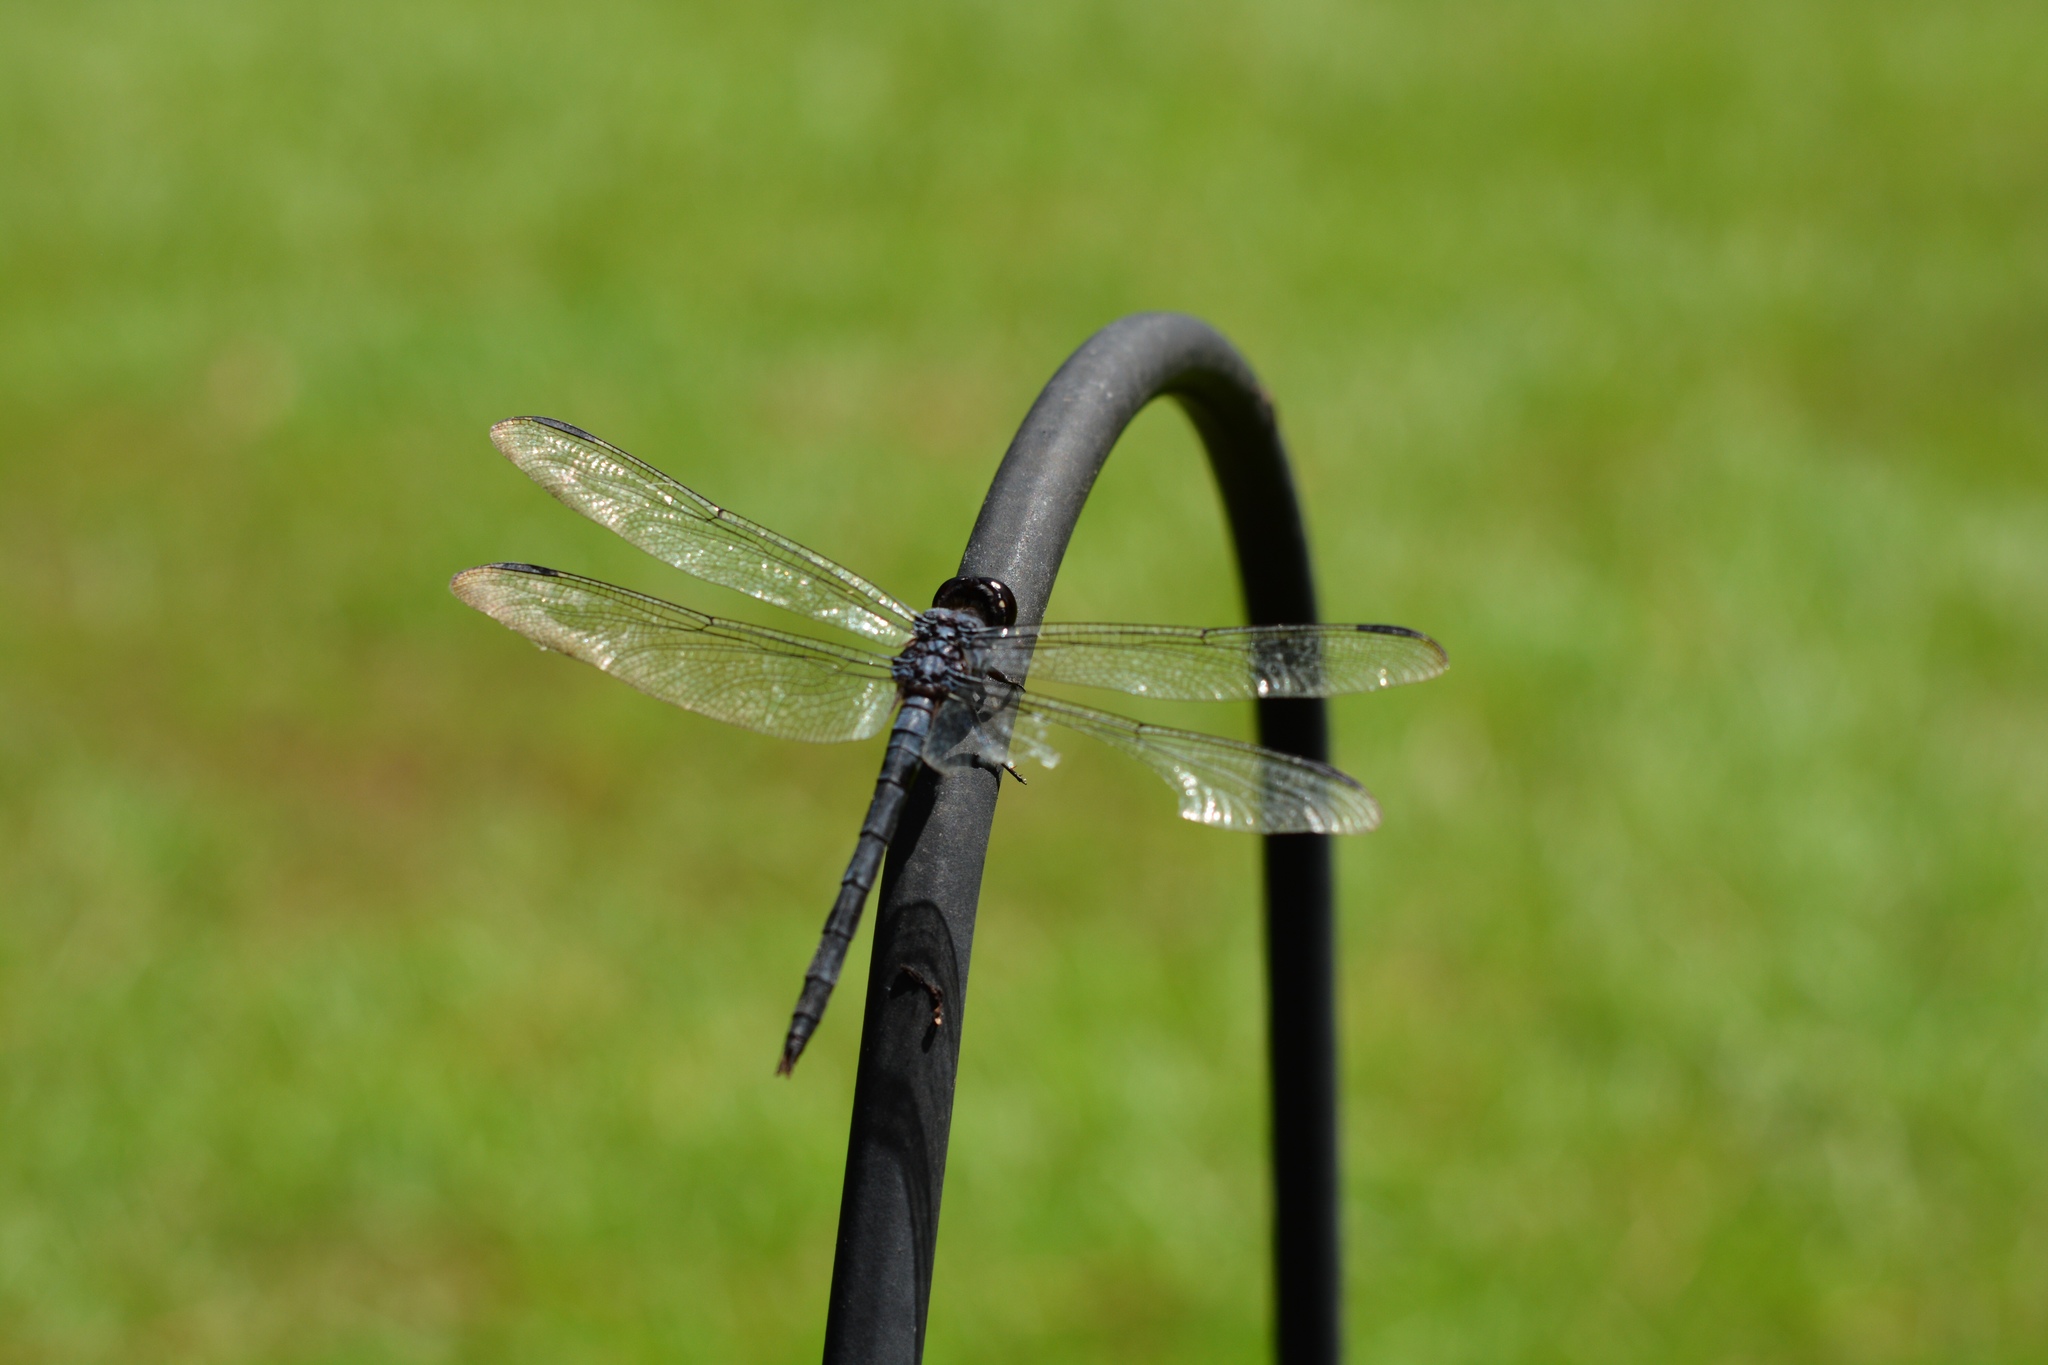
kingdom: Animalia
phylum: Arthropoda
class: Insecta
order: Odonata
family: Libellulidae
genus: Libellula
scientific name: Libellula incesta
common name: Slaty skimmer
